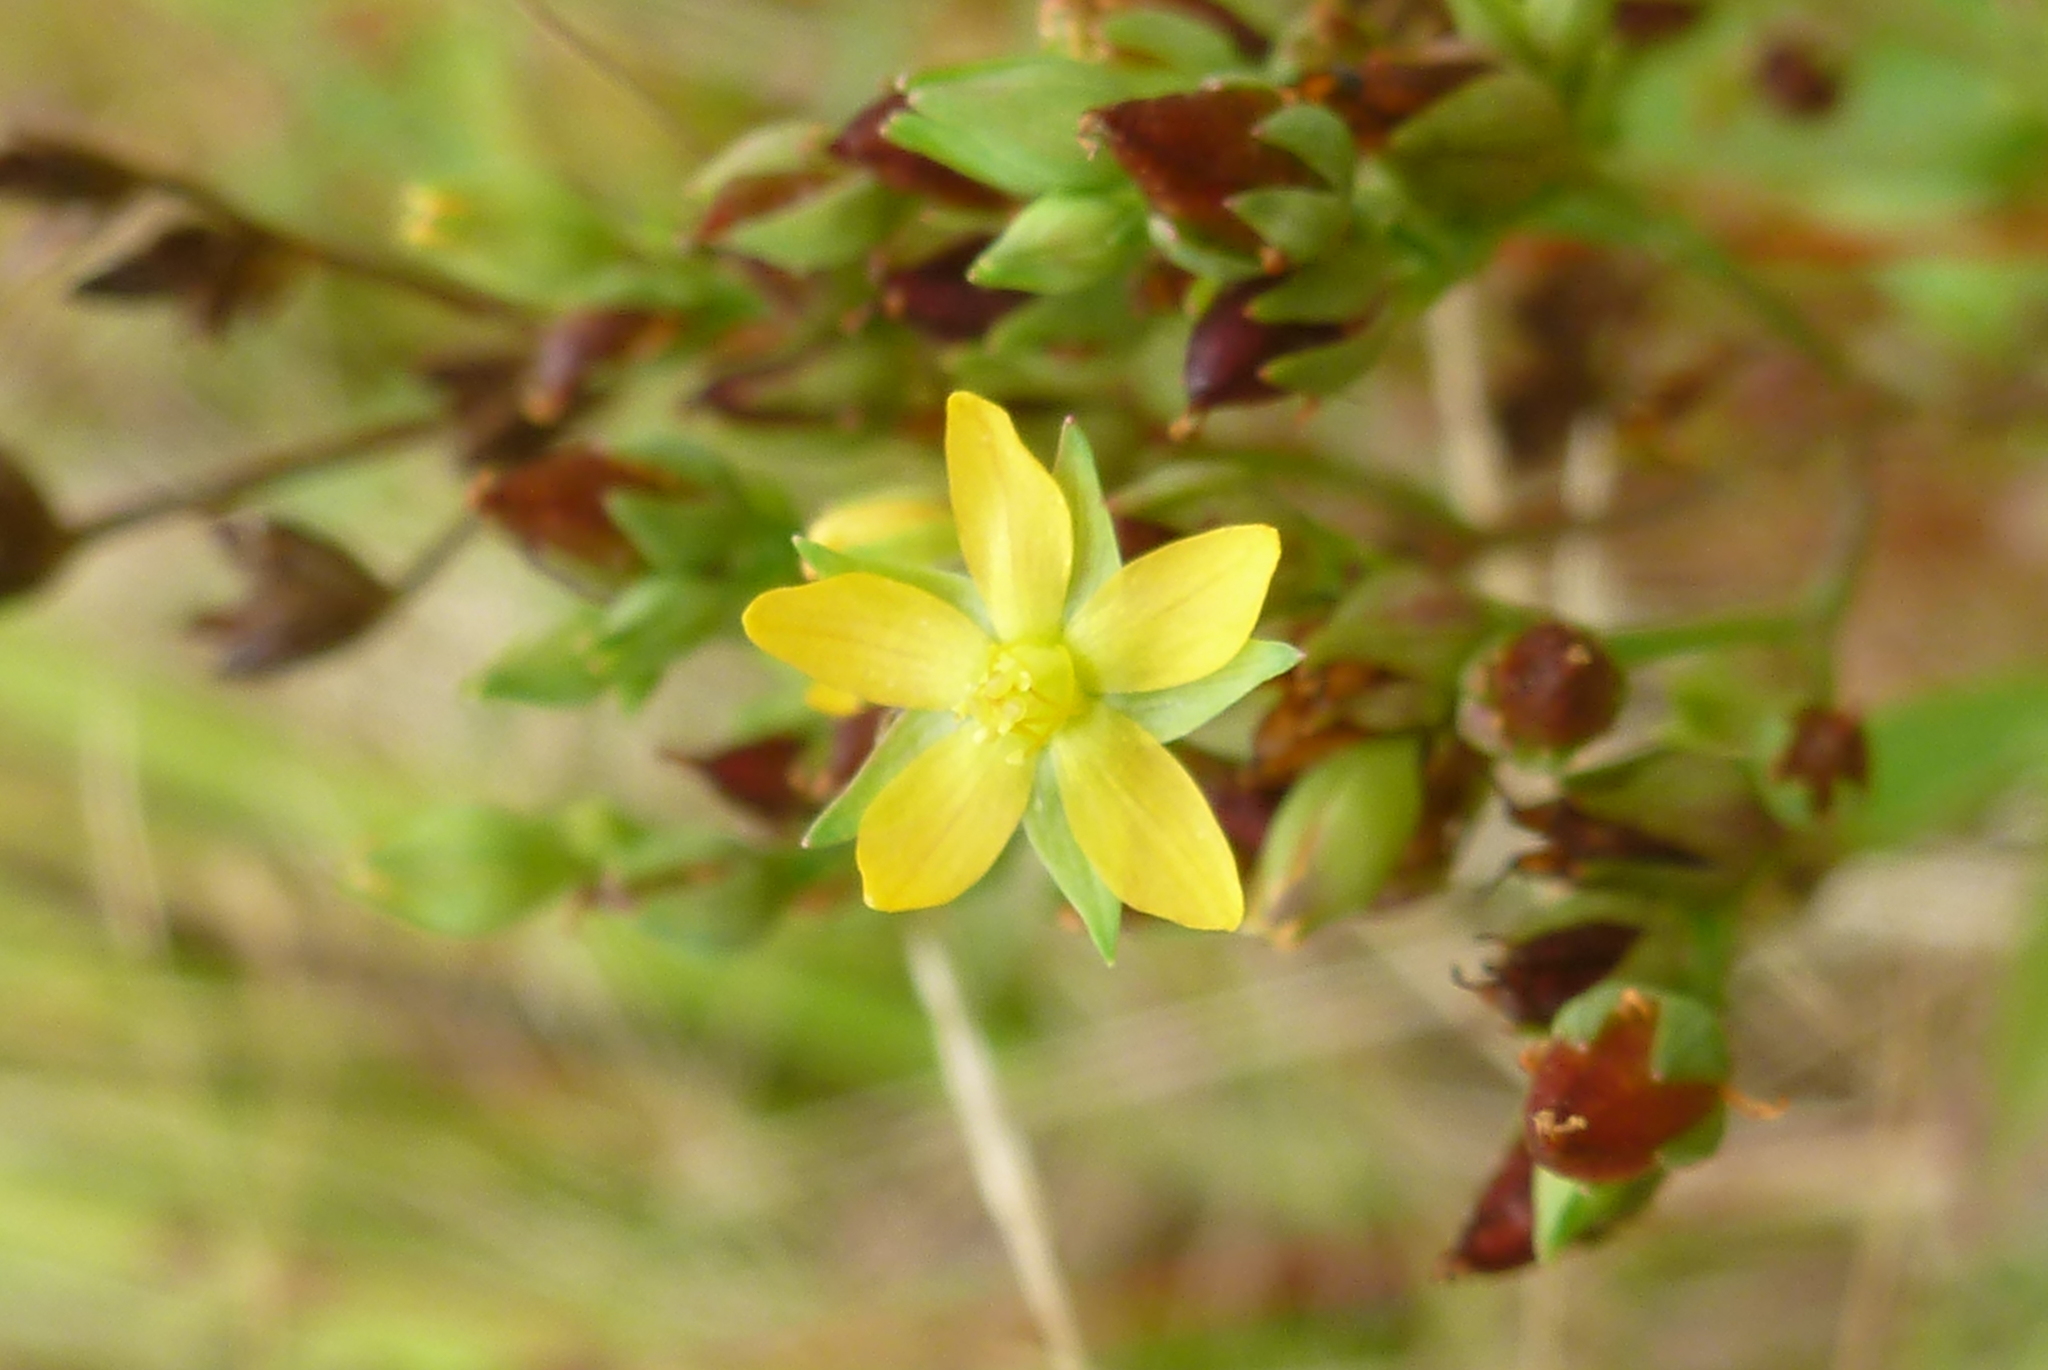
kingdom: Plantae
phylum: Tracheophyta
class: Magnoliopsida
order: Malpighiales
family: Hypericaceae
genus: Hypericum
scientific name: Hypericum majus
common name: Greater canadian st. john's-wort
